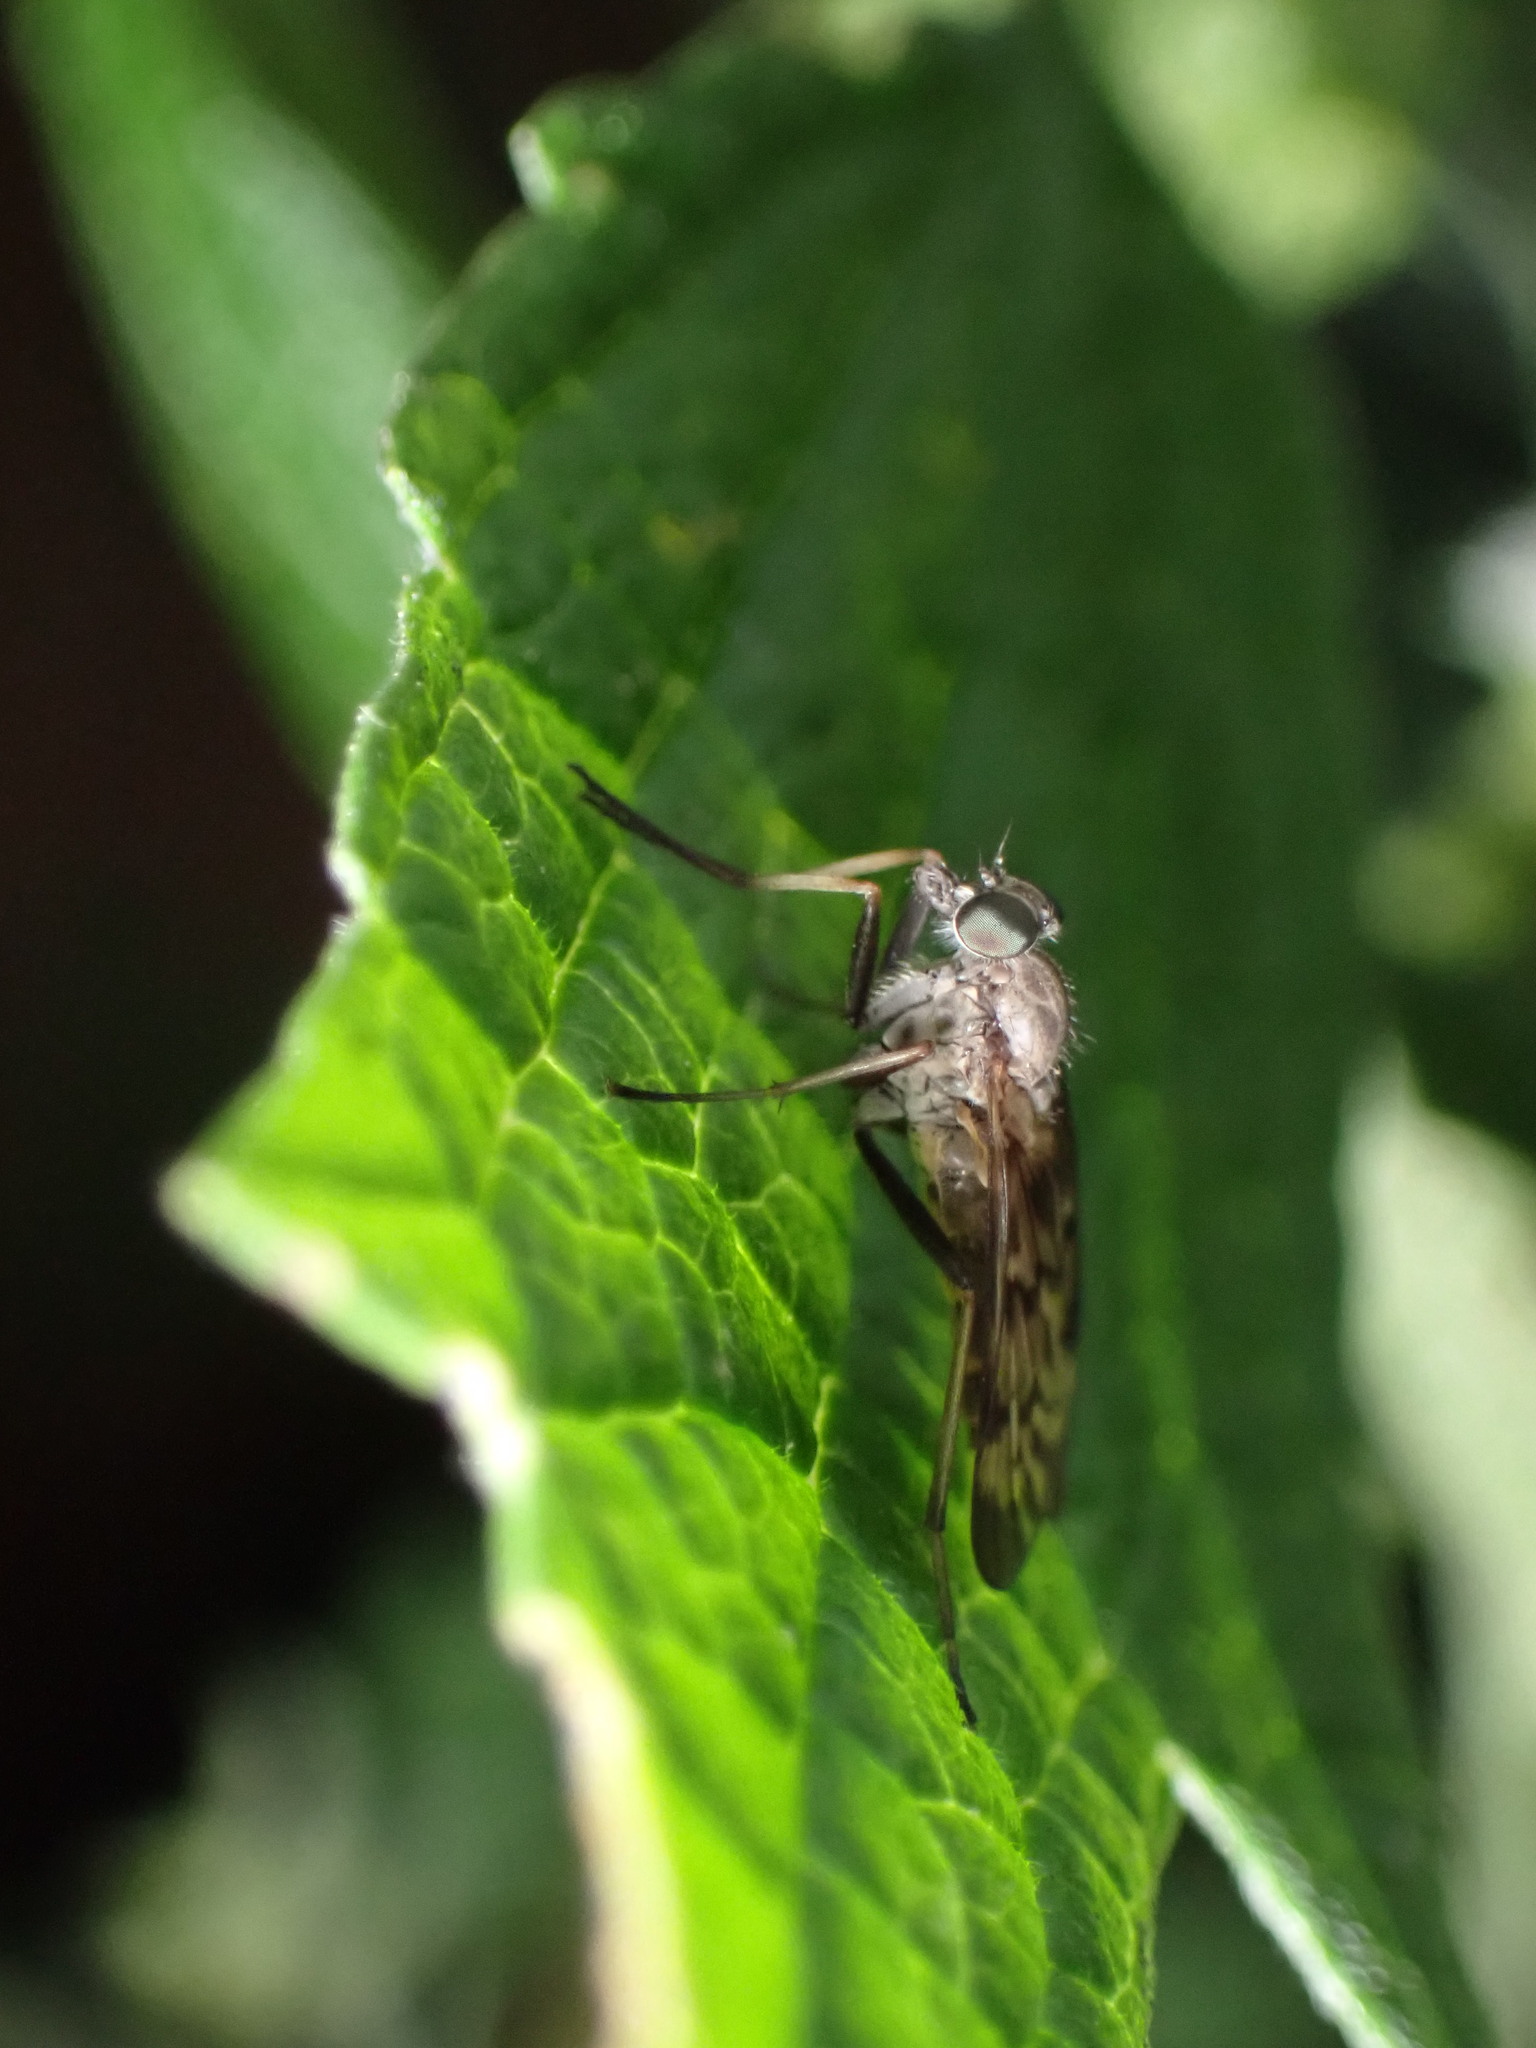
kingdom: Animalia
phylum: Arthropoda
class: Insecta
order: Diptera
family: Rhagionidae
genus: Rhagio
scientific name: Rhagio punctipennis
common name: Lesser variegated snipe fly
